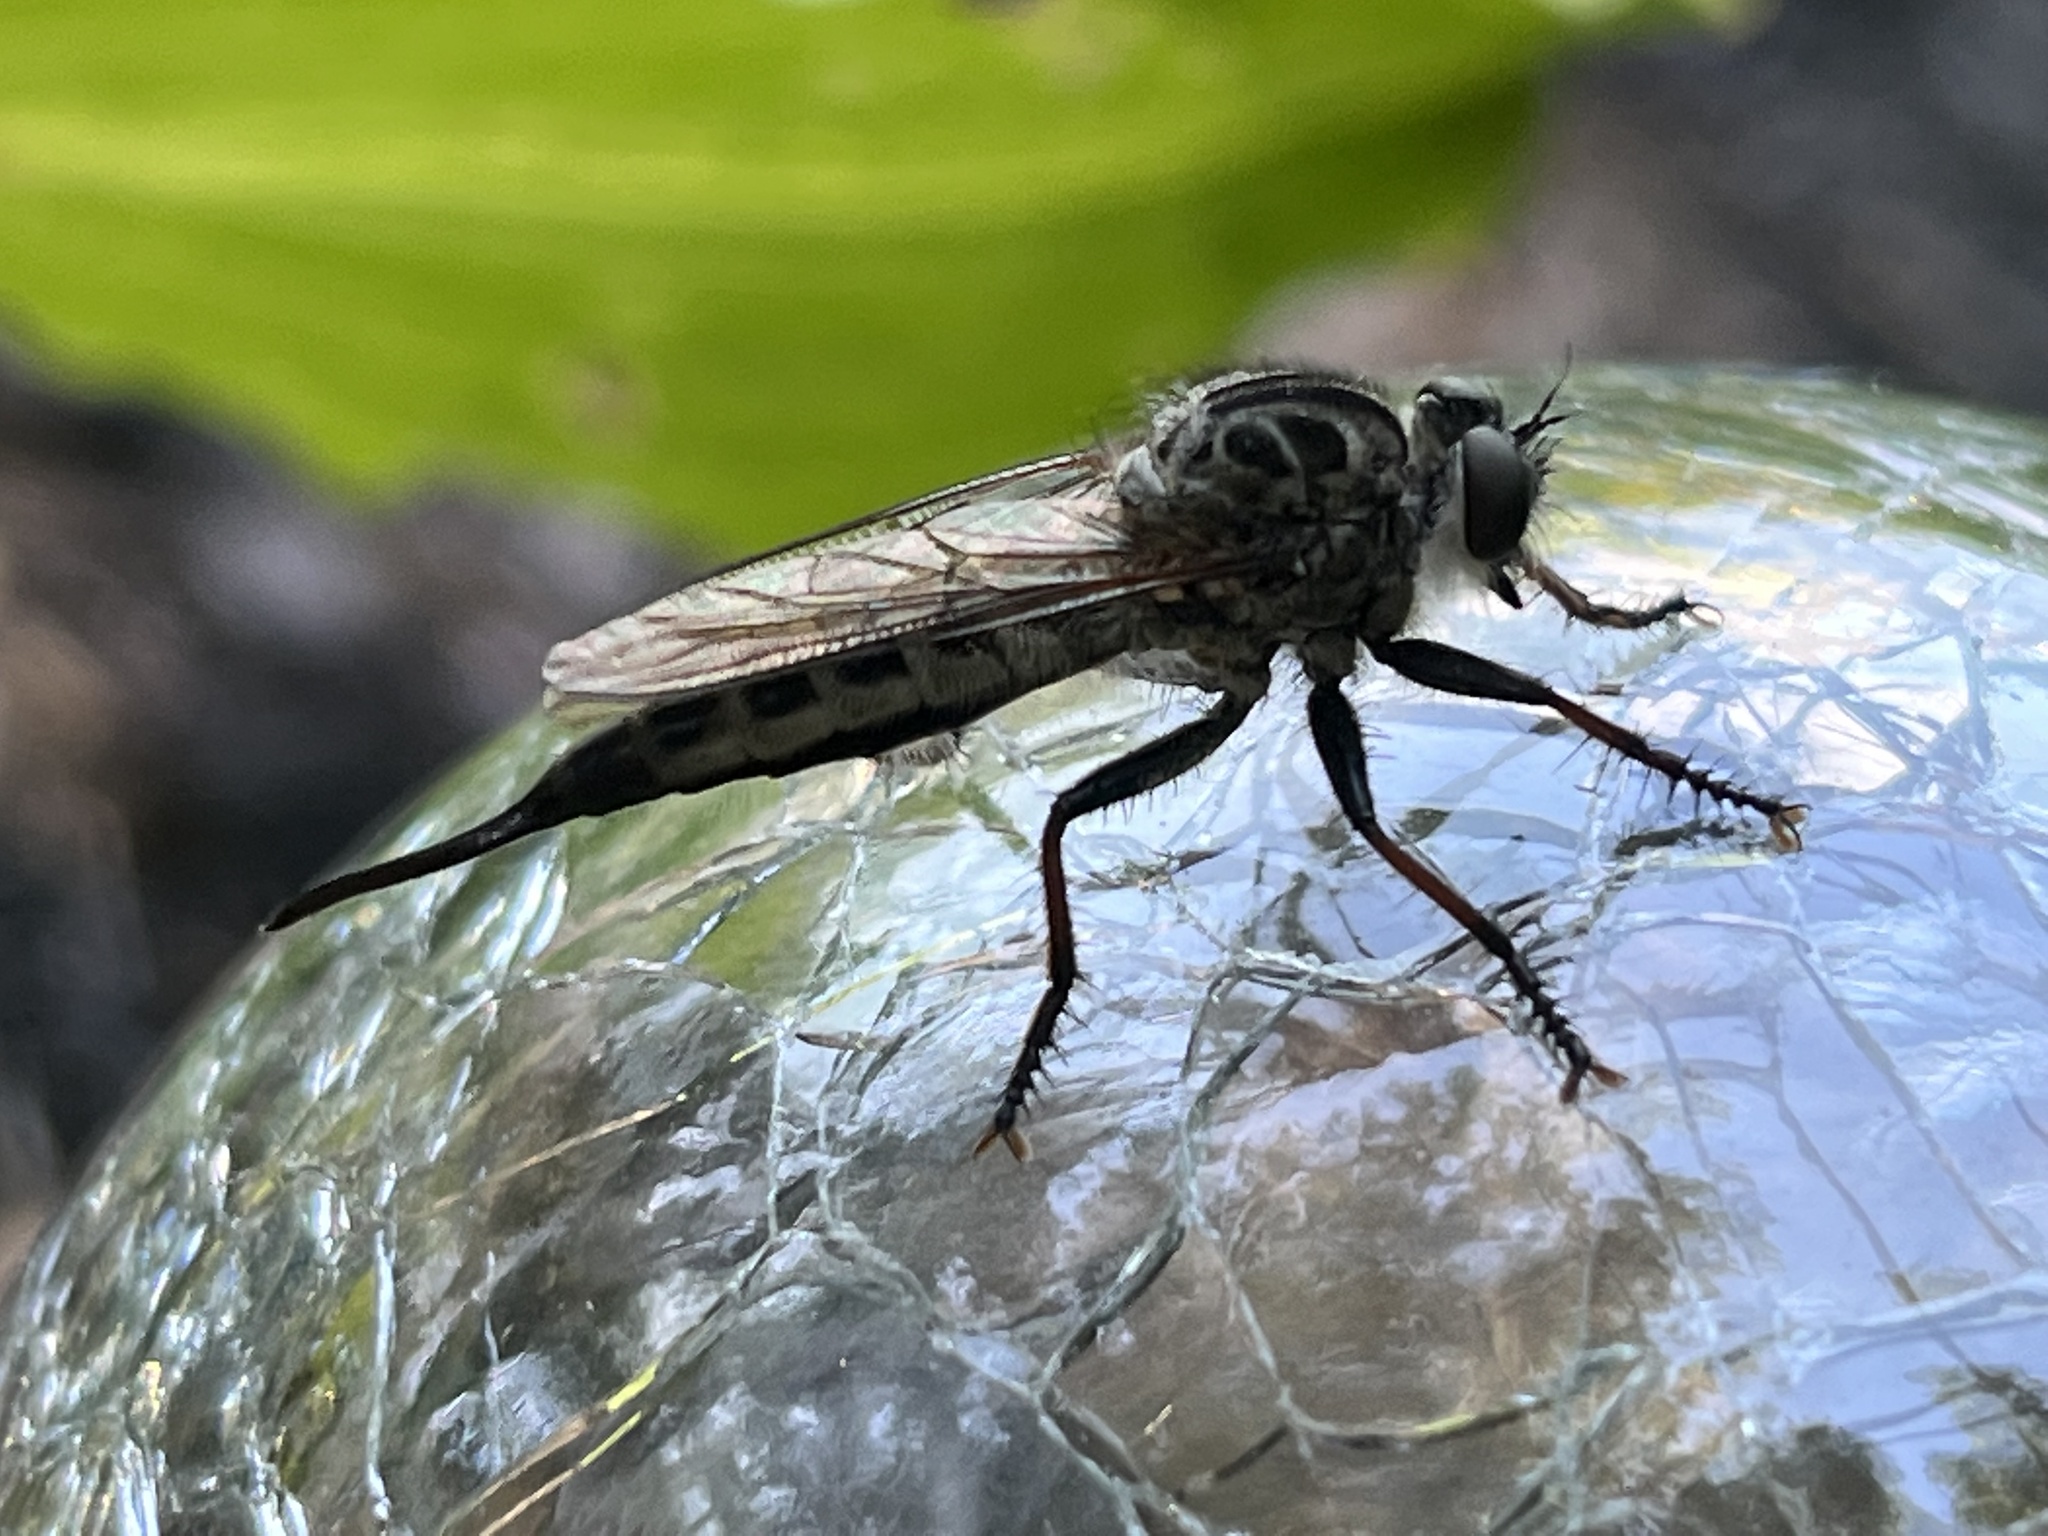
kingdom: Animalia
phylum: Arthropoda
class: Insecta
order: Diptera
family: Asilidae
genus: Efferia
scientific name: Efferia aestuans
